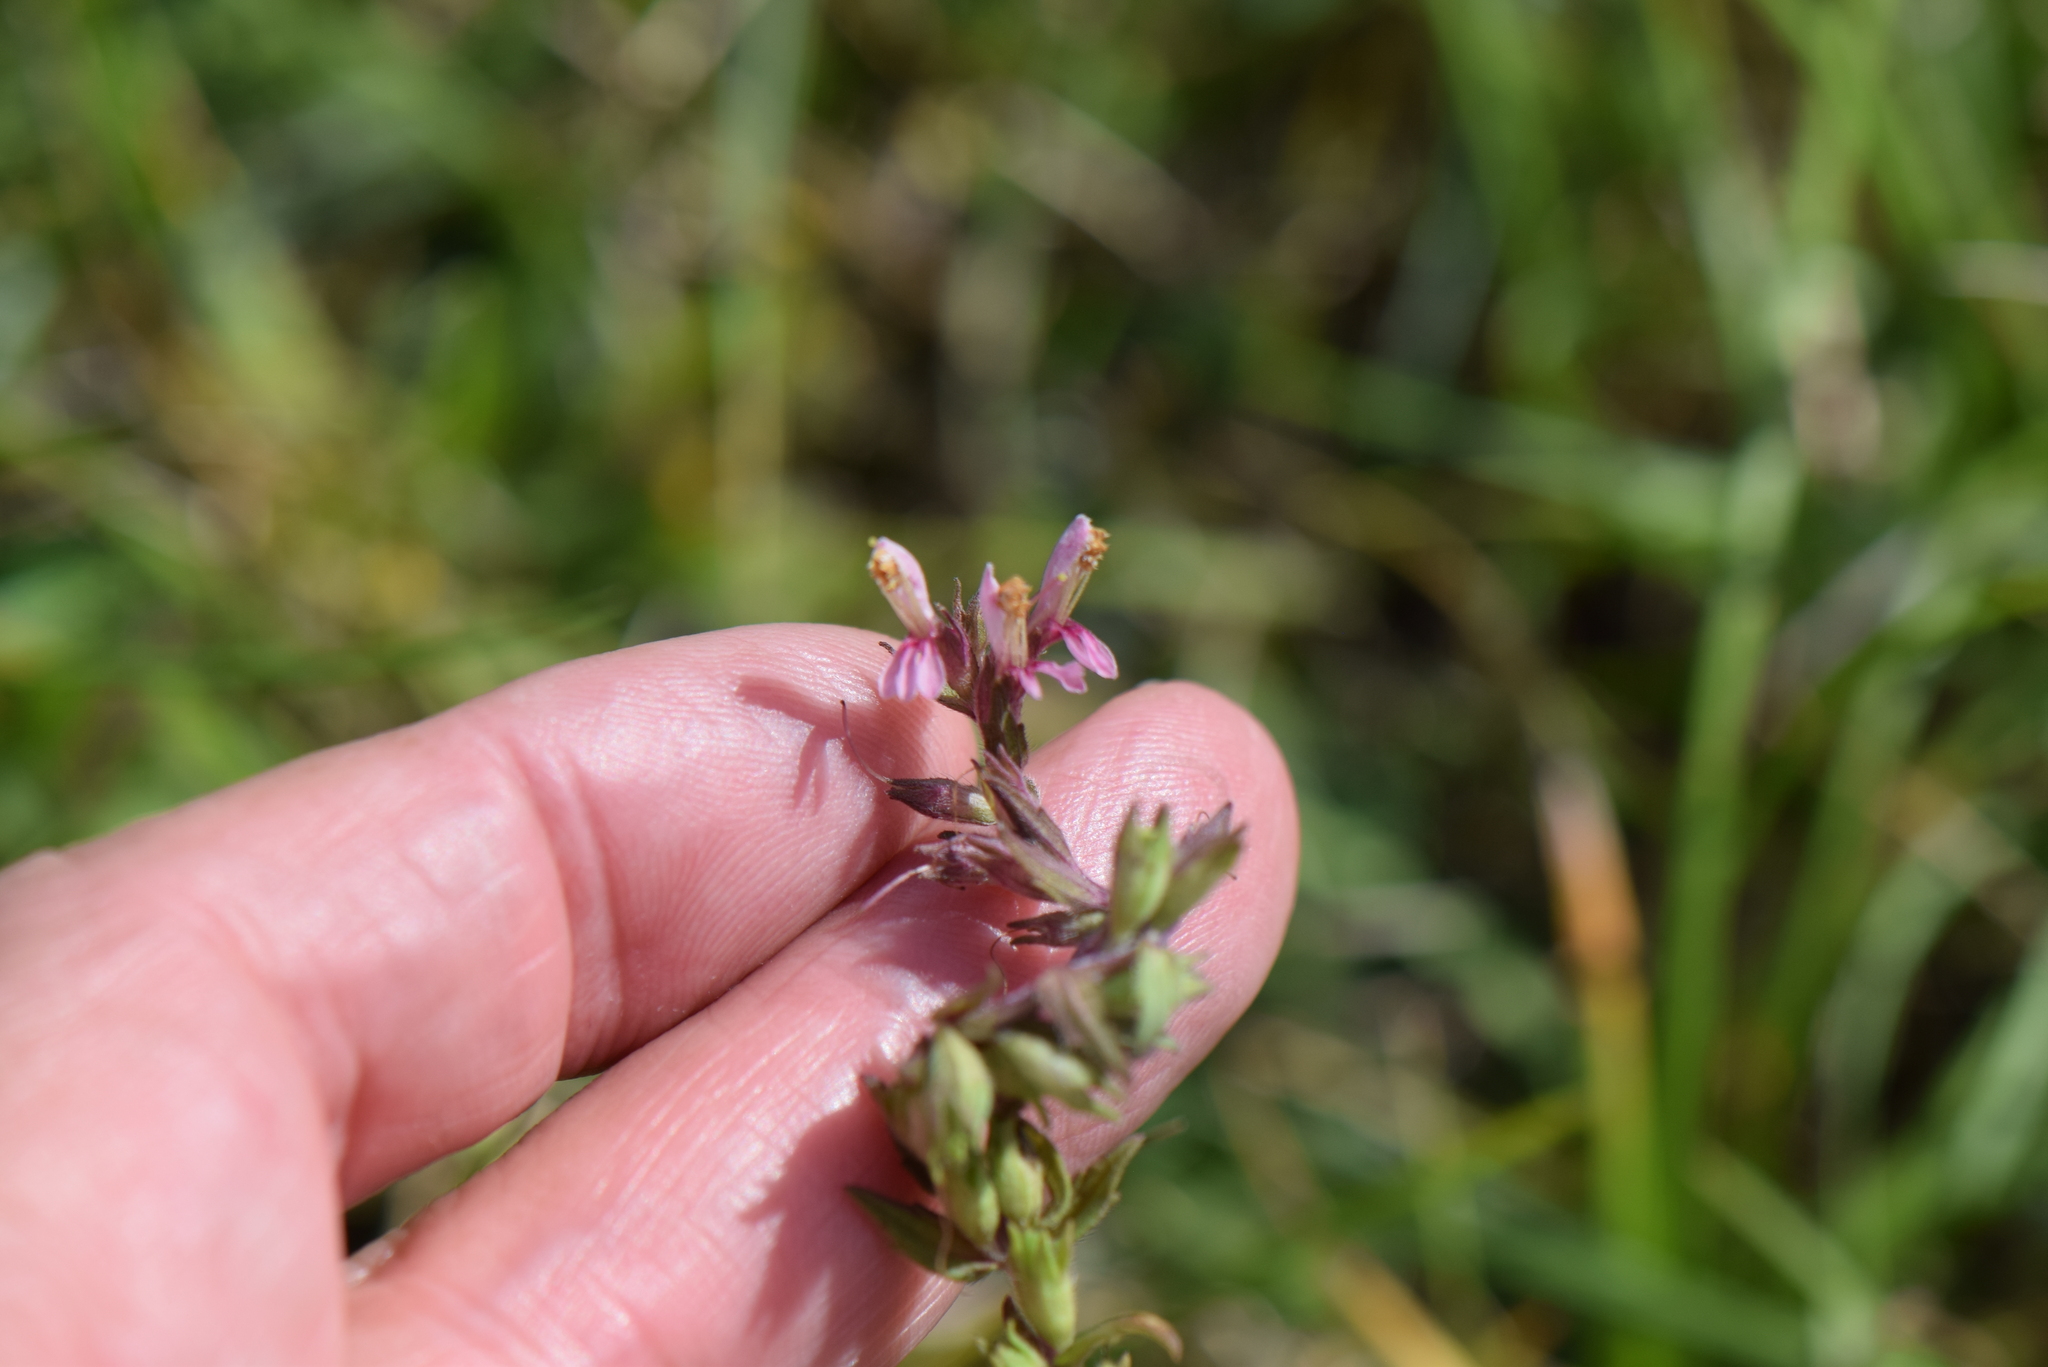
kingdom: Plantae
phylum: Tracheophyta
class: Magnoliopsida
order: Lamiales
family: Orobanchaceae
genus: Odontites
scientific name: Odontites vulgaris
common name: Broomrape
